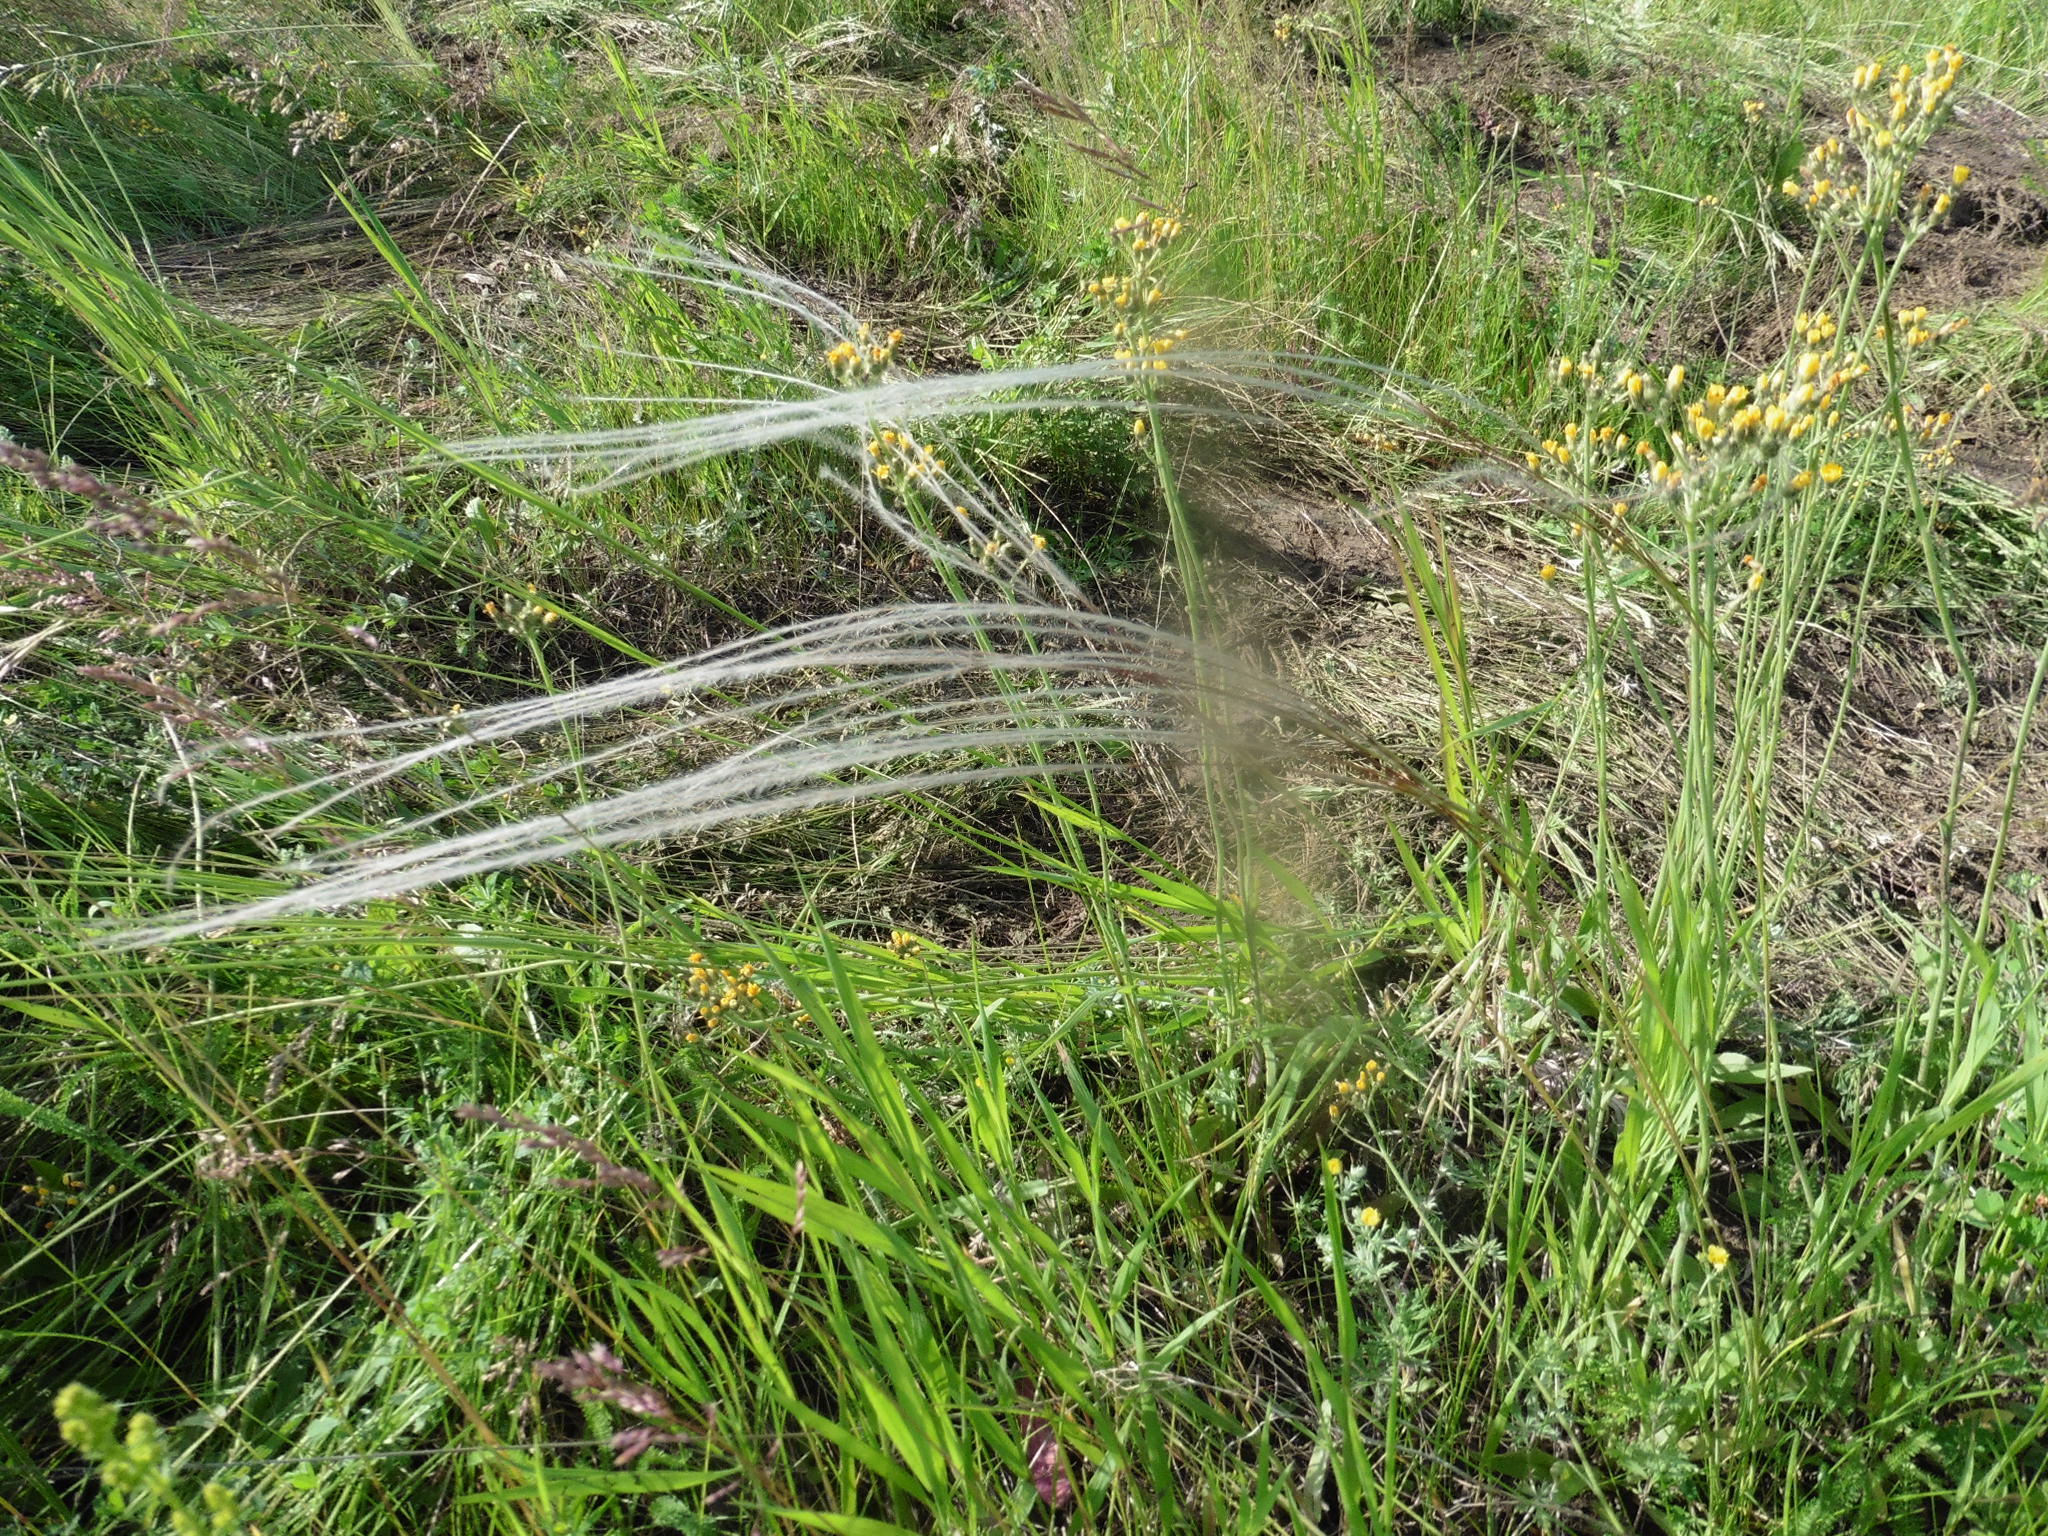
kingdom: Plantae
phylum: Tracheophyta
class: Liliopsida
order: Poales
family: Poaceae
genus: Stipa
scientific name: Stipa pennata
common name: European feather grass
